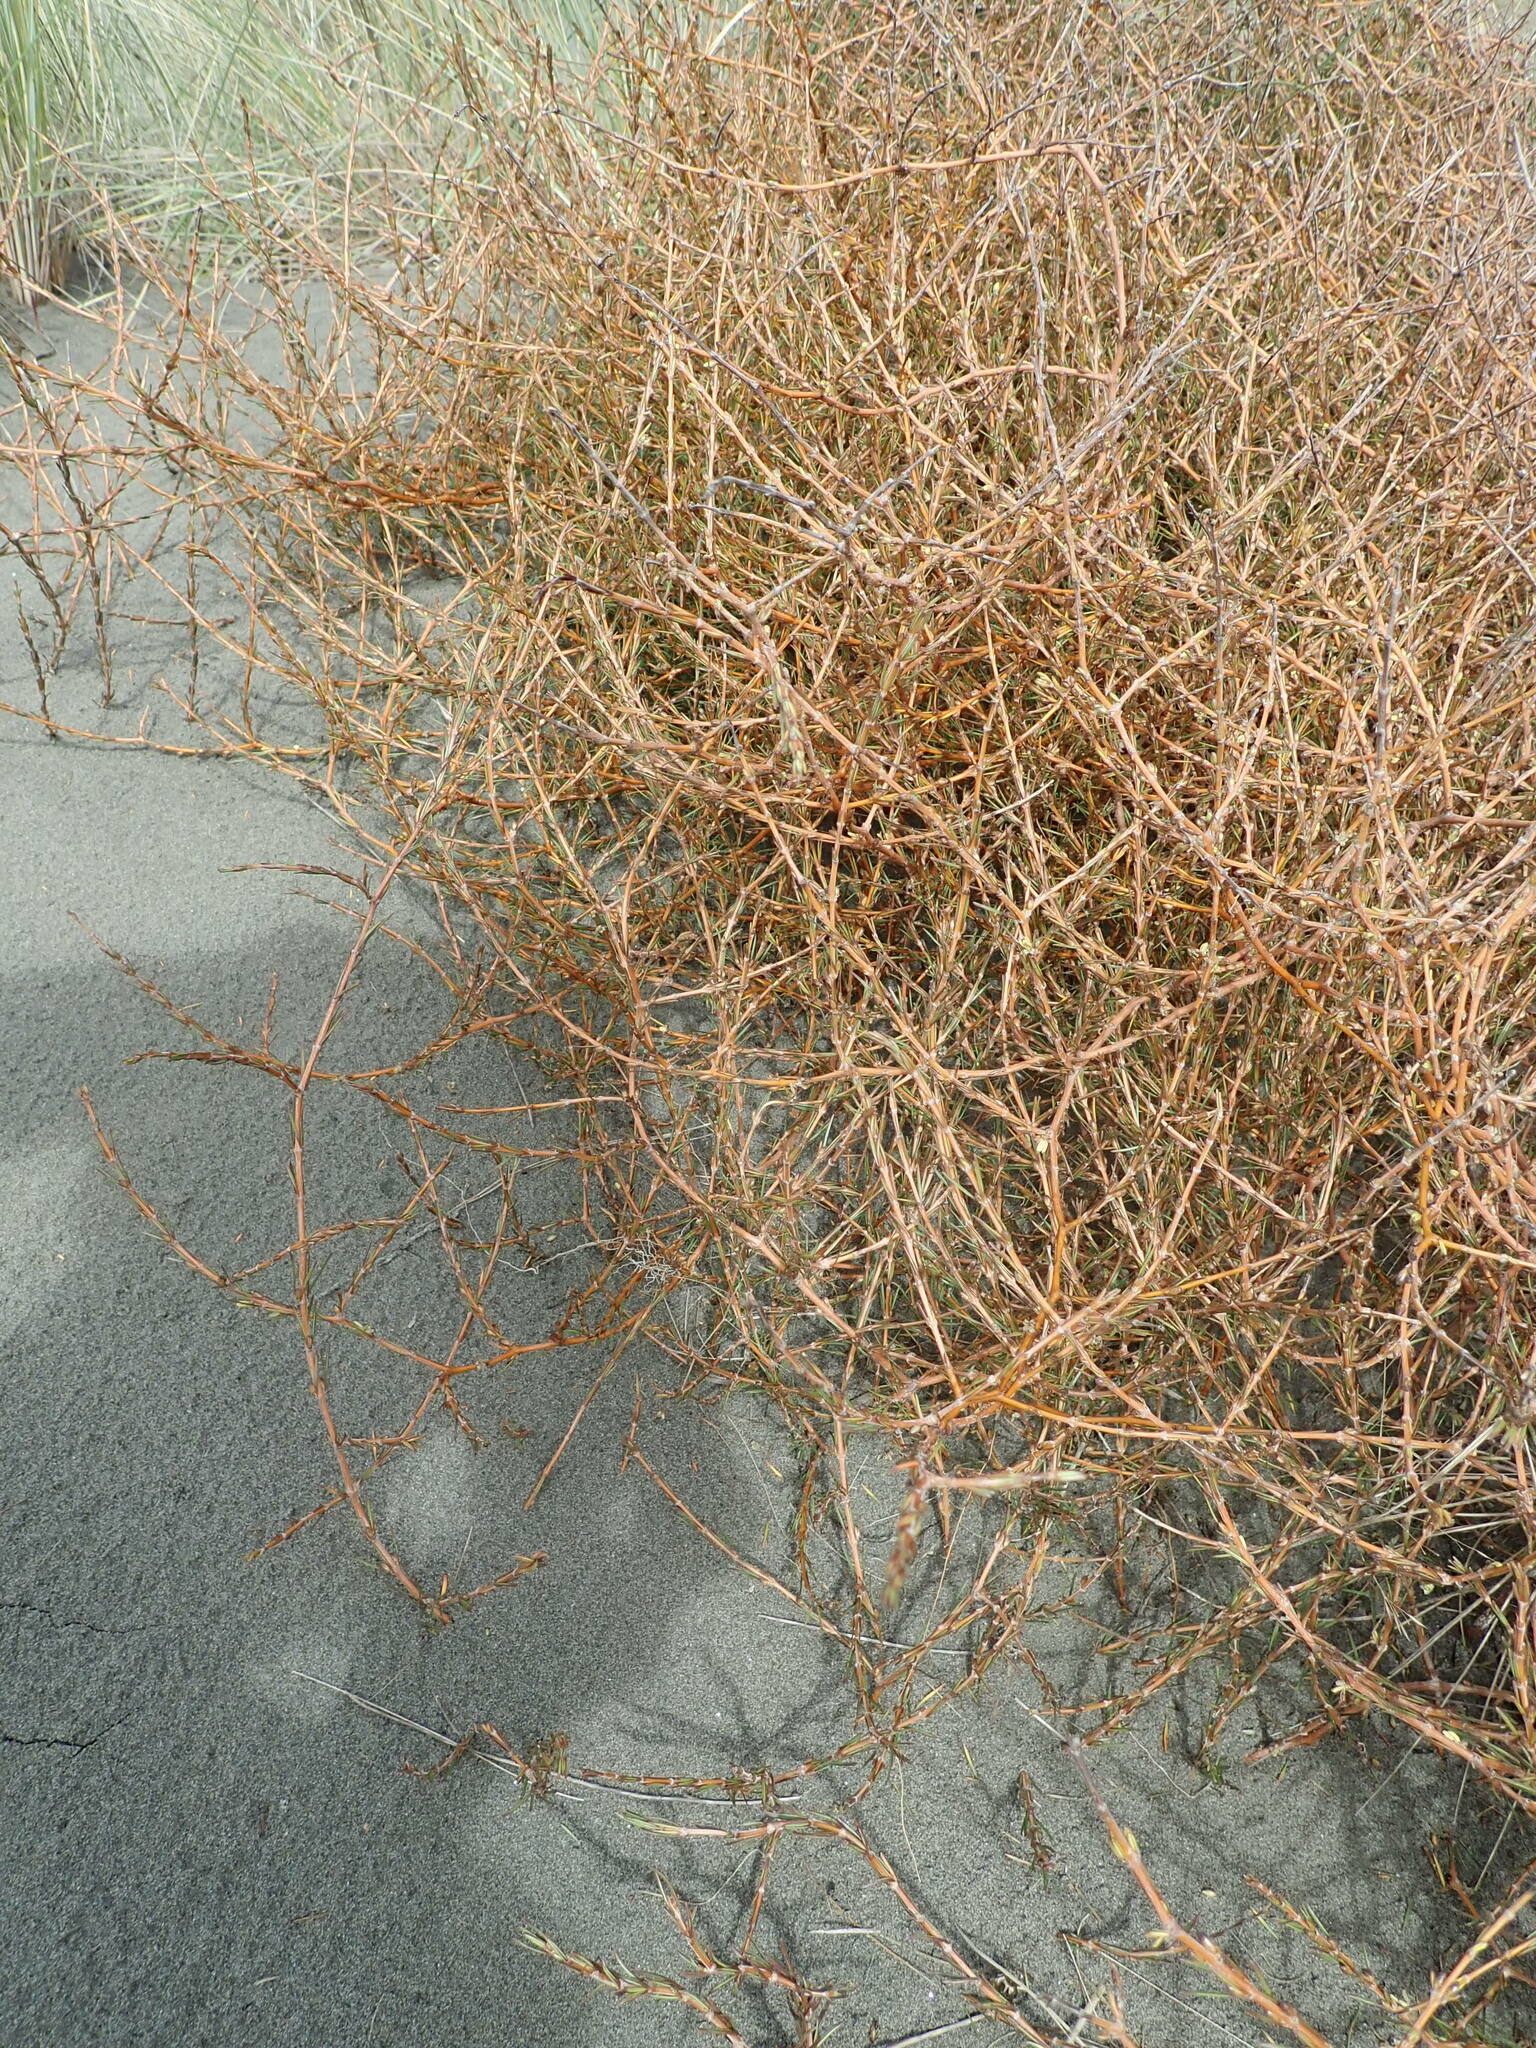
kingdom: Plantae
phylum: Tracheophyta
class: Magnoliopsida
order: Gentianales
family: Rubiaceae
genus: Coprosma
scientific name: Coprosma acerosa
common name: Sand coprosma
